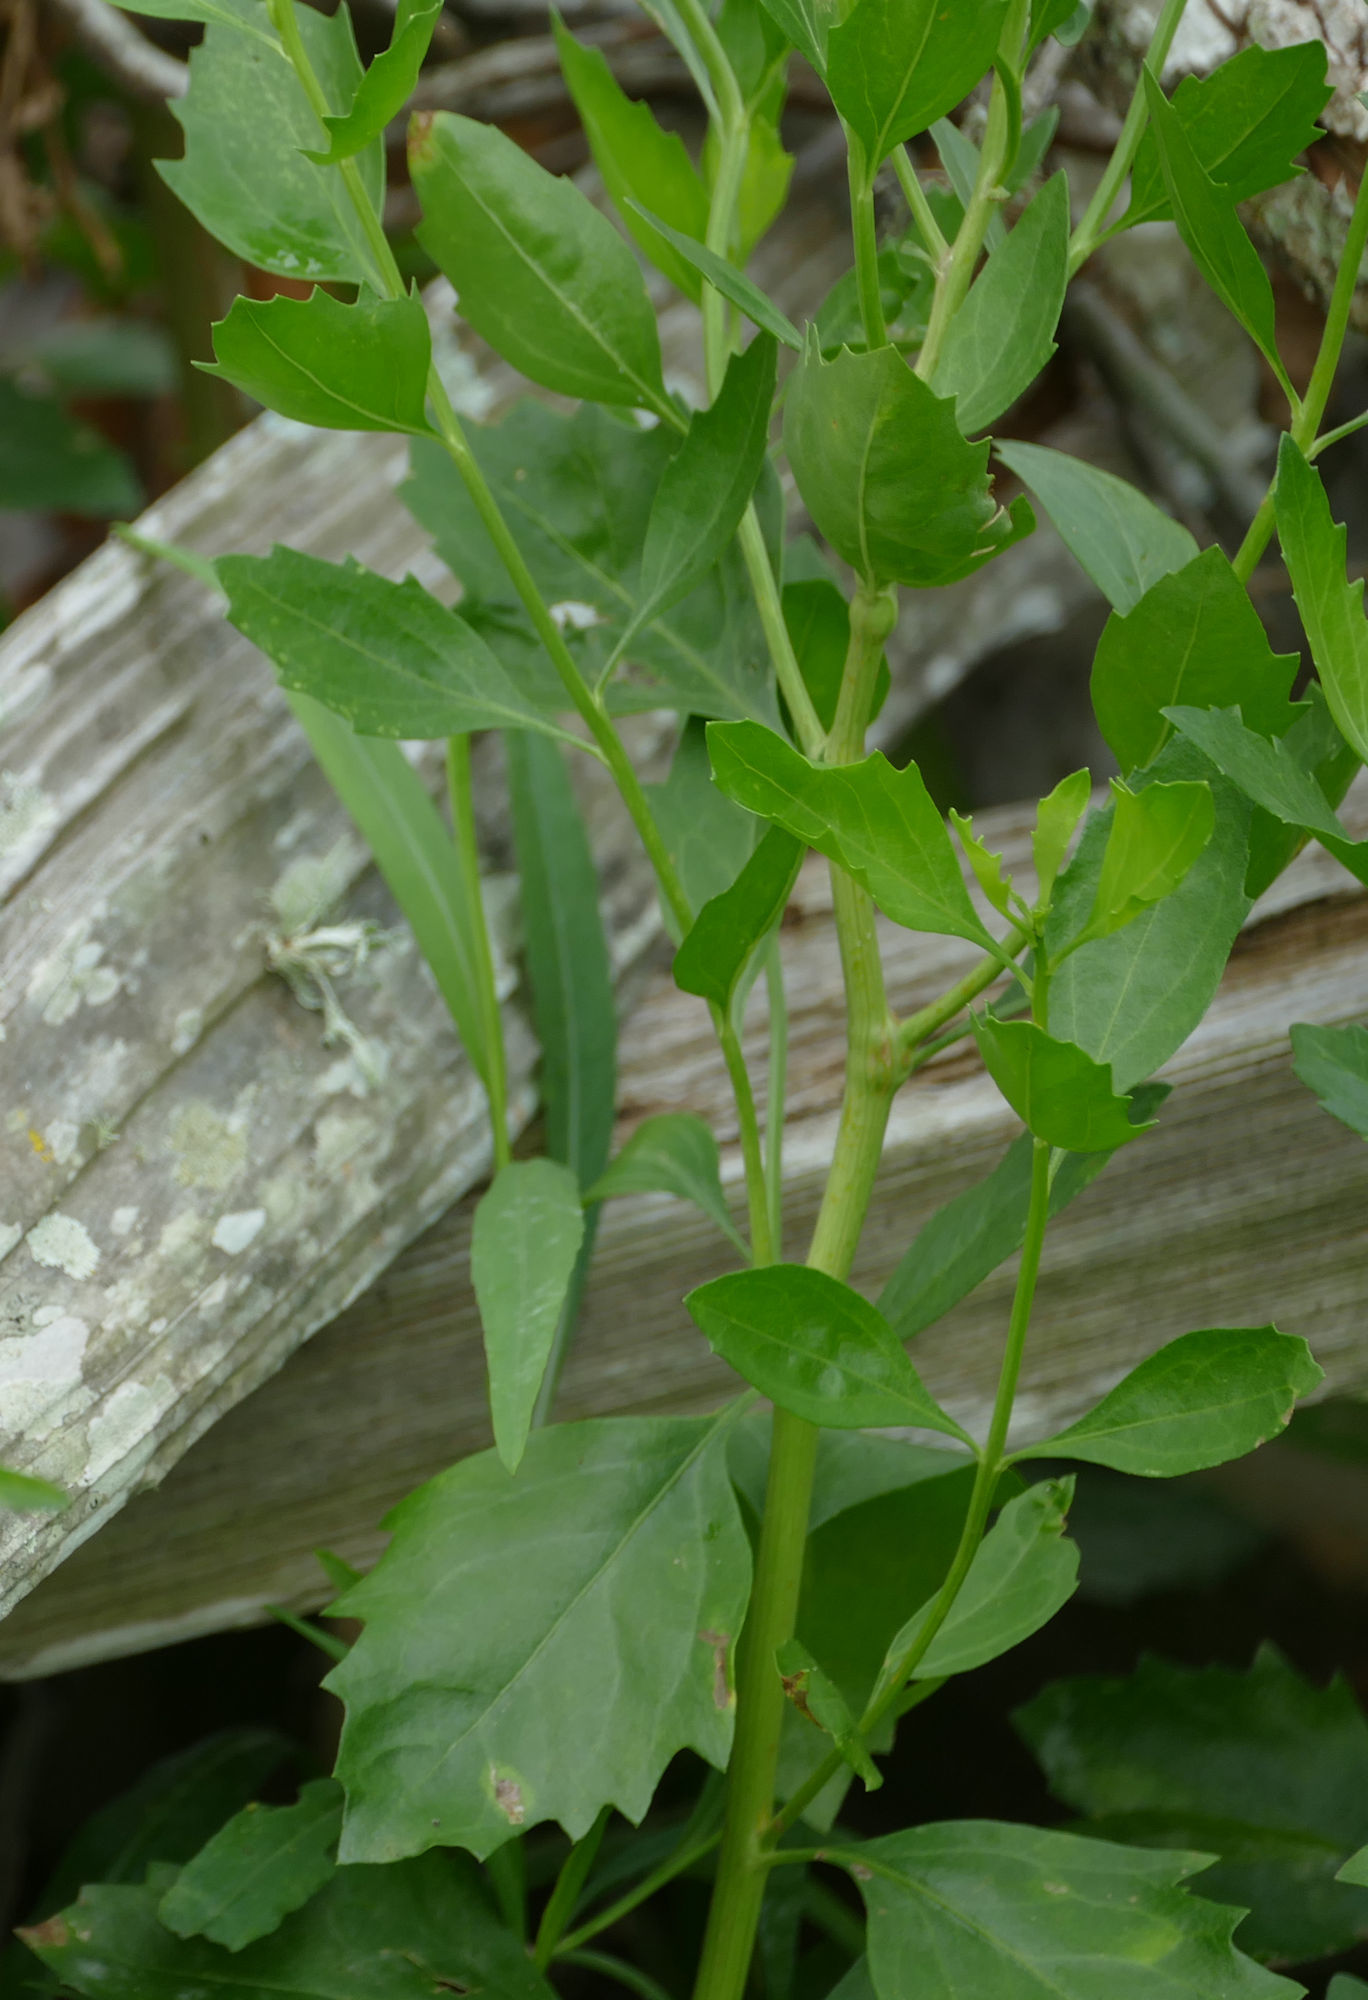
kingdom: Plantae
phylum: Tracheophyta
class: Magnoliopsida
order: Asterales
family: Asteraceae
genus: Baccharis
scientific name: Baccharis halimifolia
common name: Eastern baccharis
